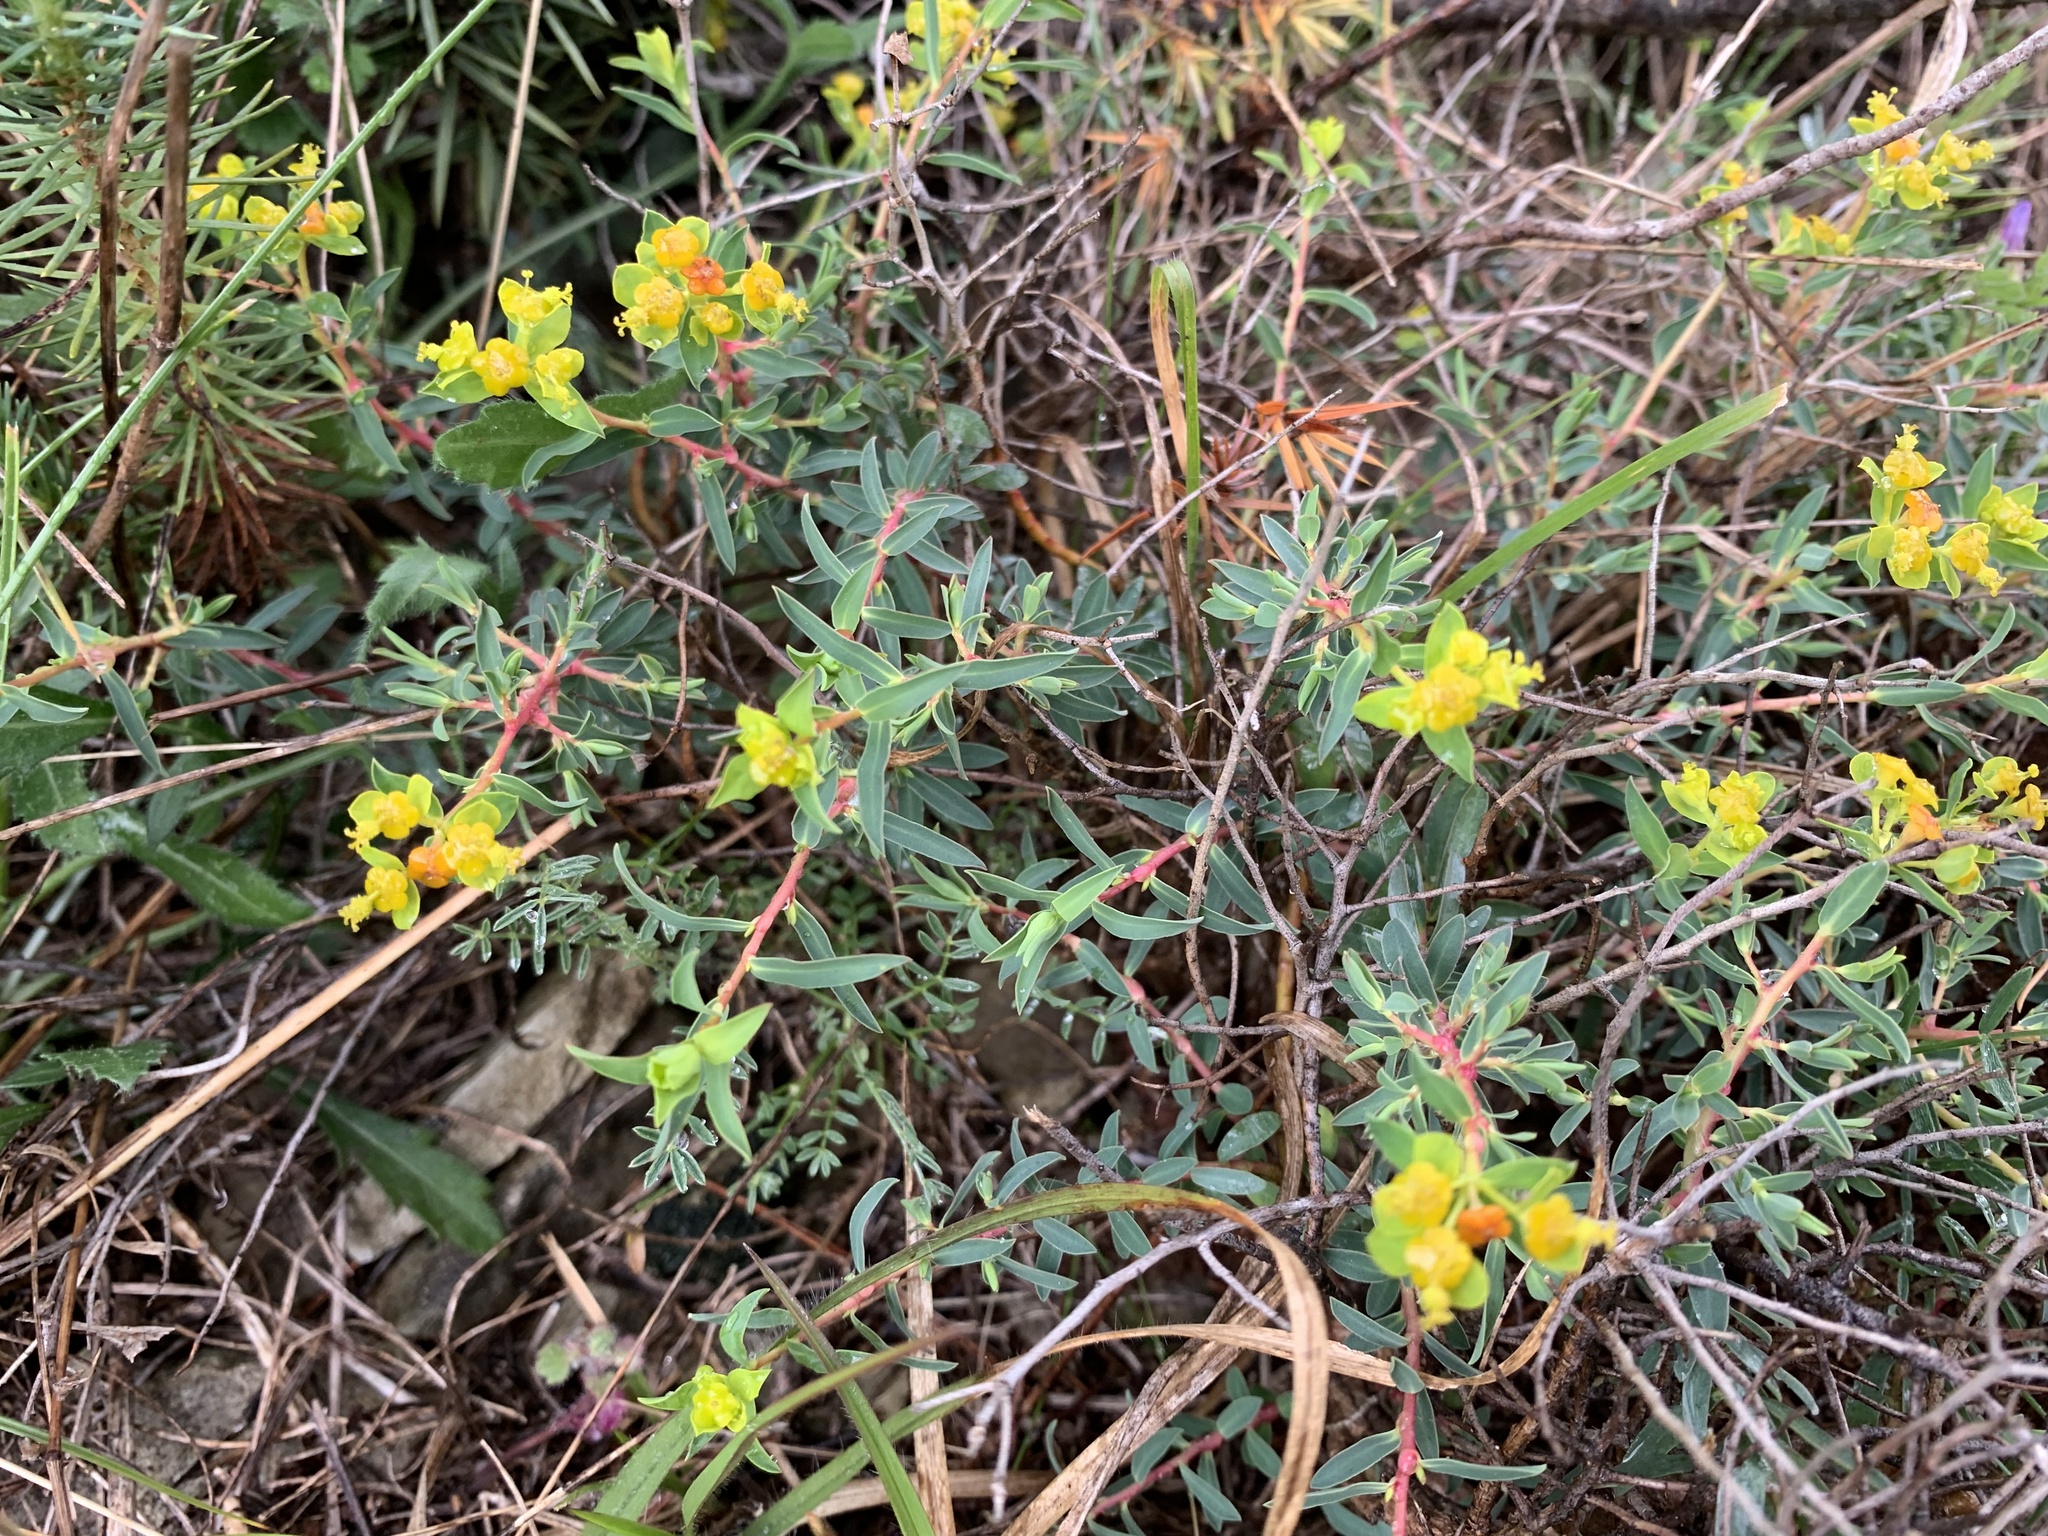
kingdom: Plantae
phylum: Tracheophyta
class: Magnoliopsida
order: Malpighiales
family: Euphorbiaceae
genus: Euphorbia
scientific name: Euphorbia spinosa
